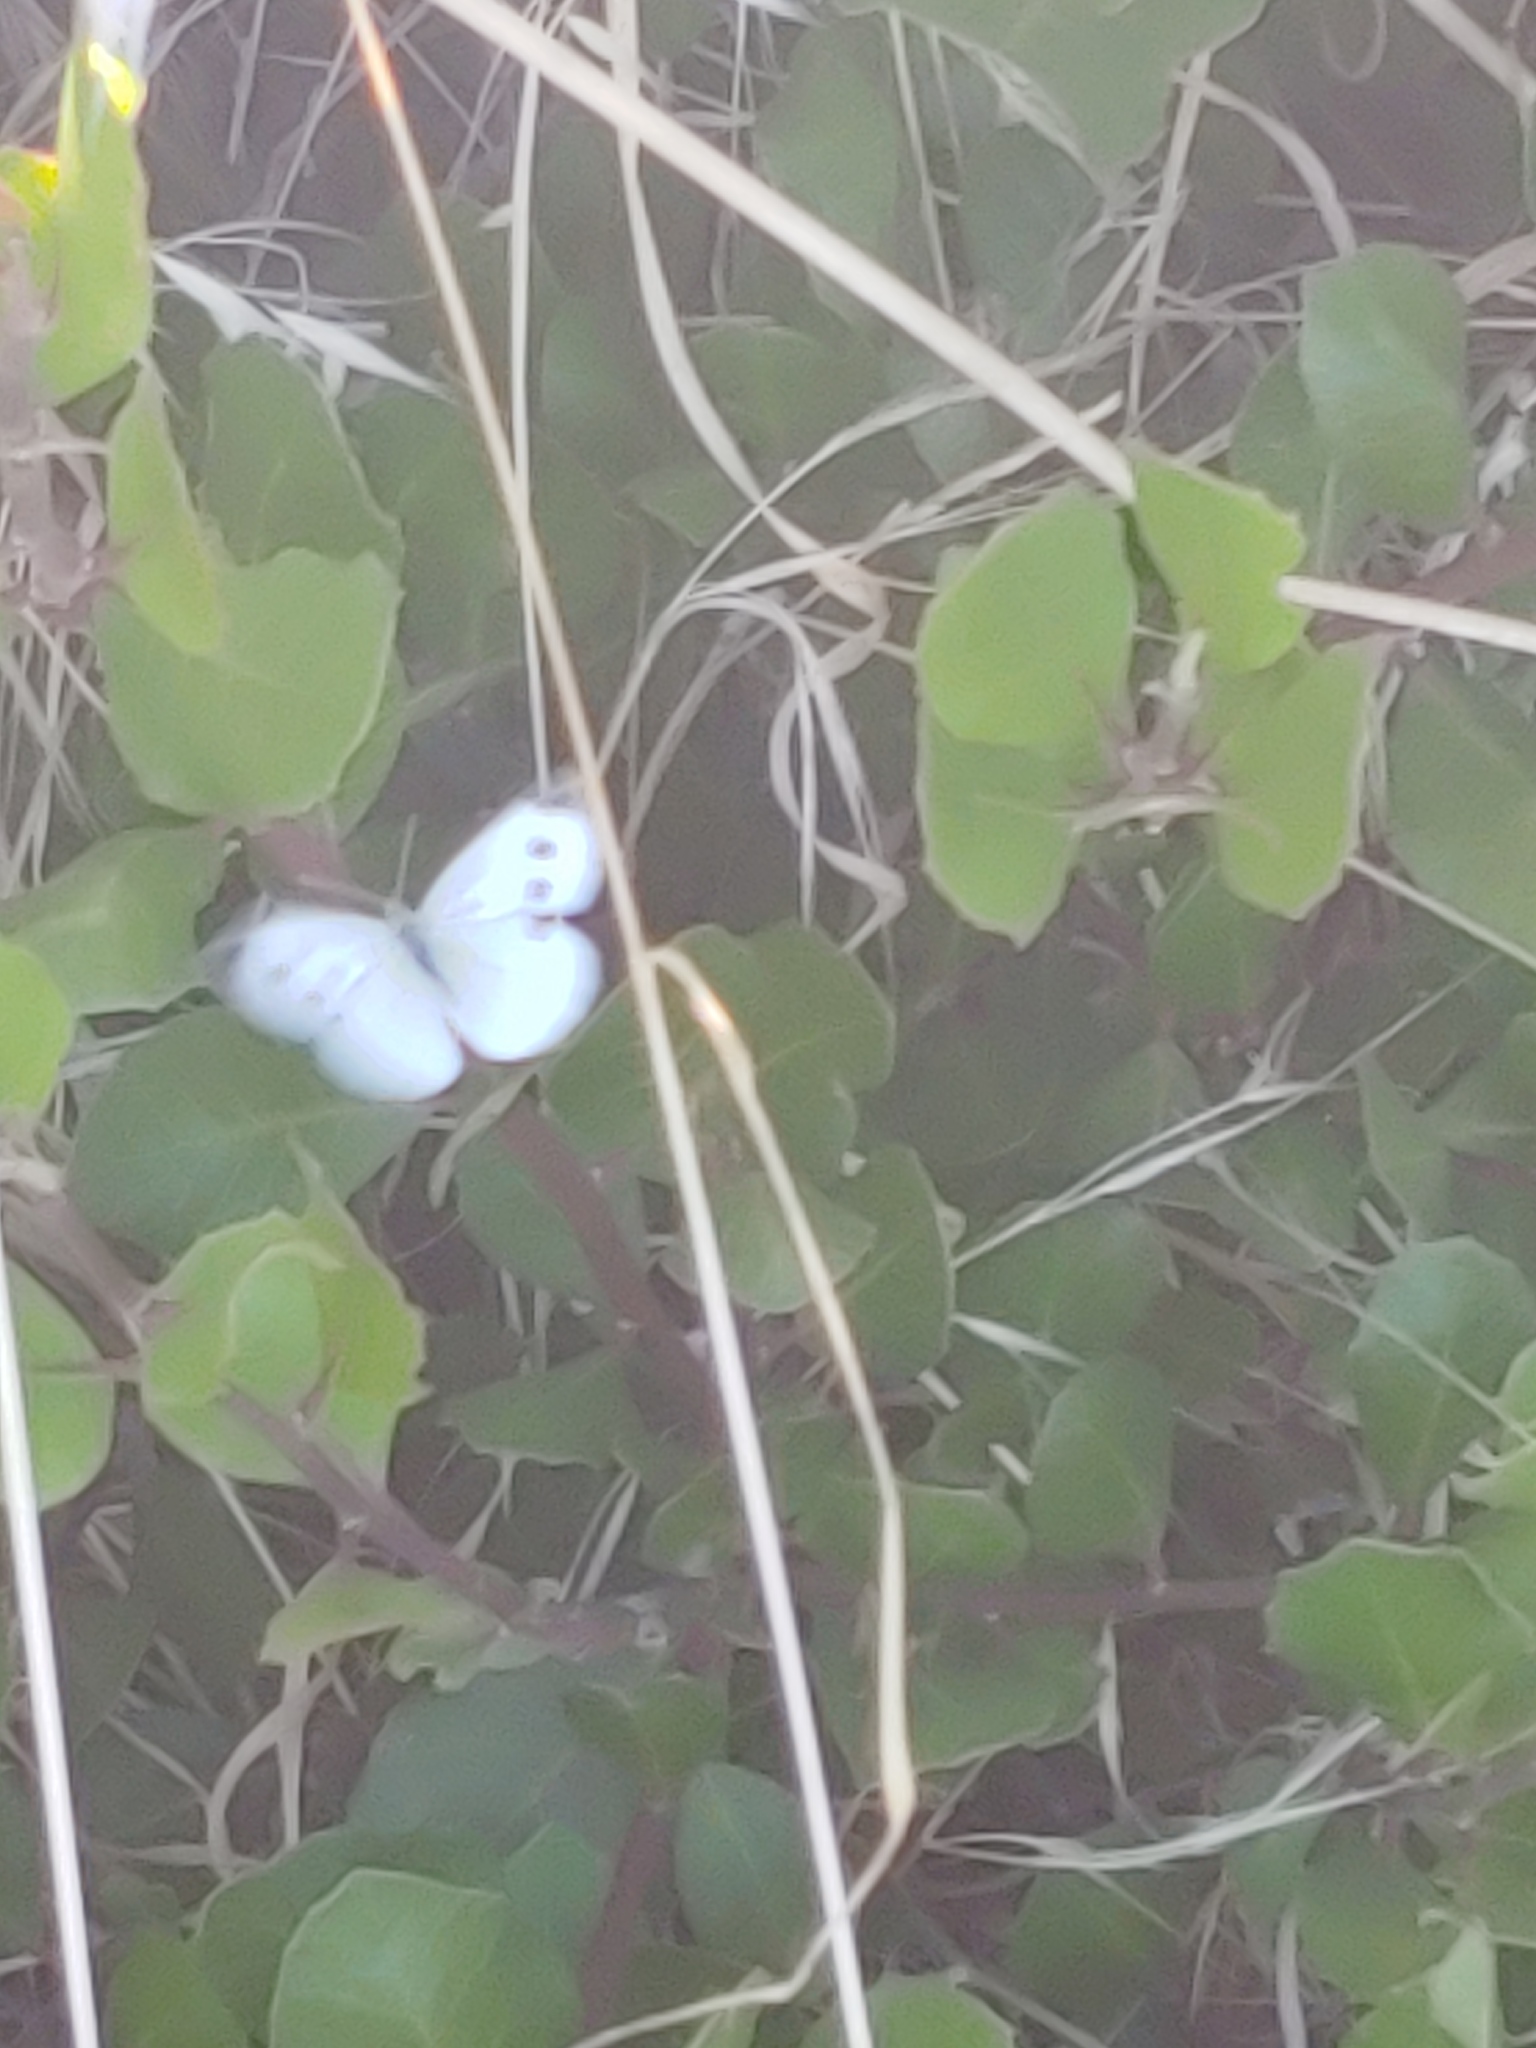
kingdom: Animalia
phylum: Arthropoda
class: Insecta
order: Lepidoptera
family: Pieridae
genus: Pieris
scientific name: Pieris rapae
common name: Small white
